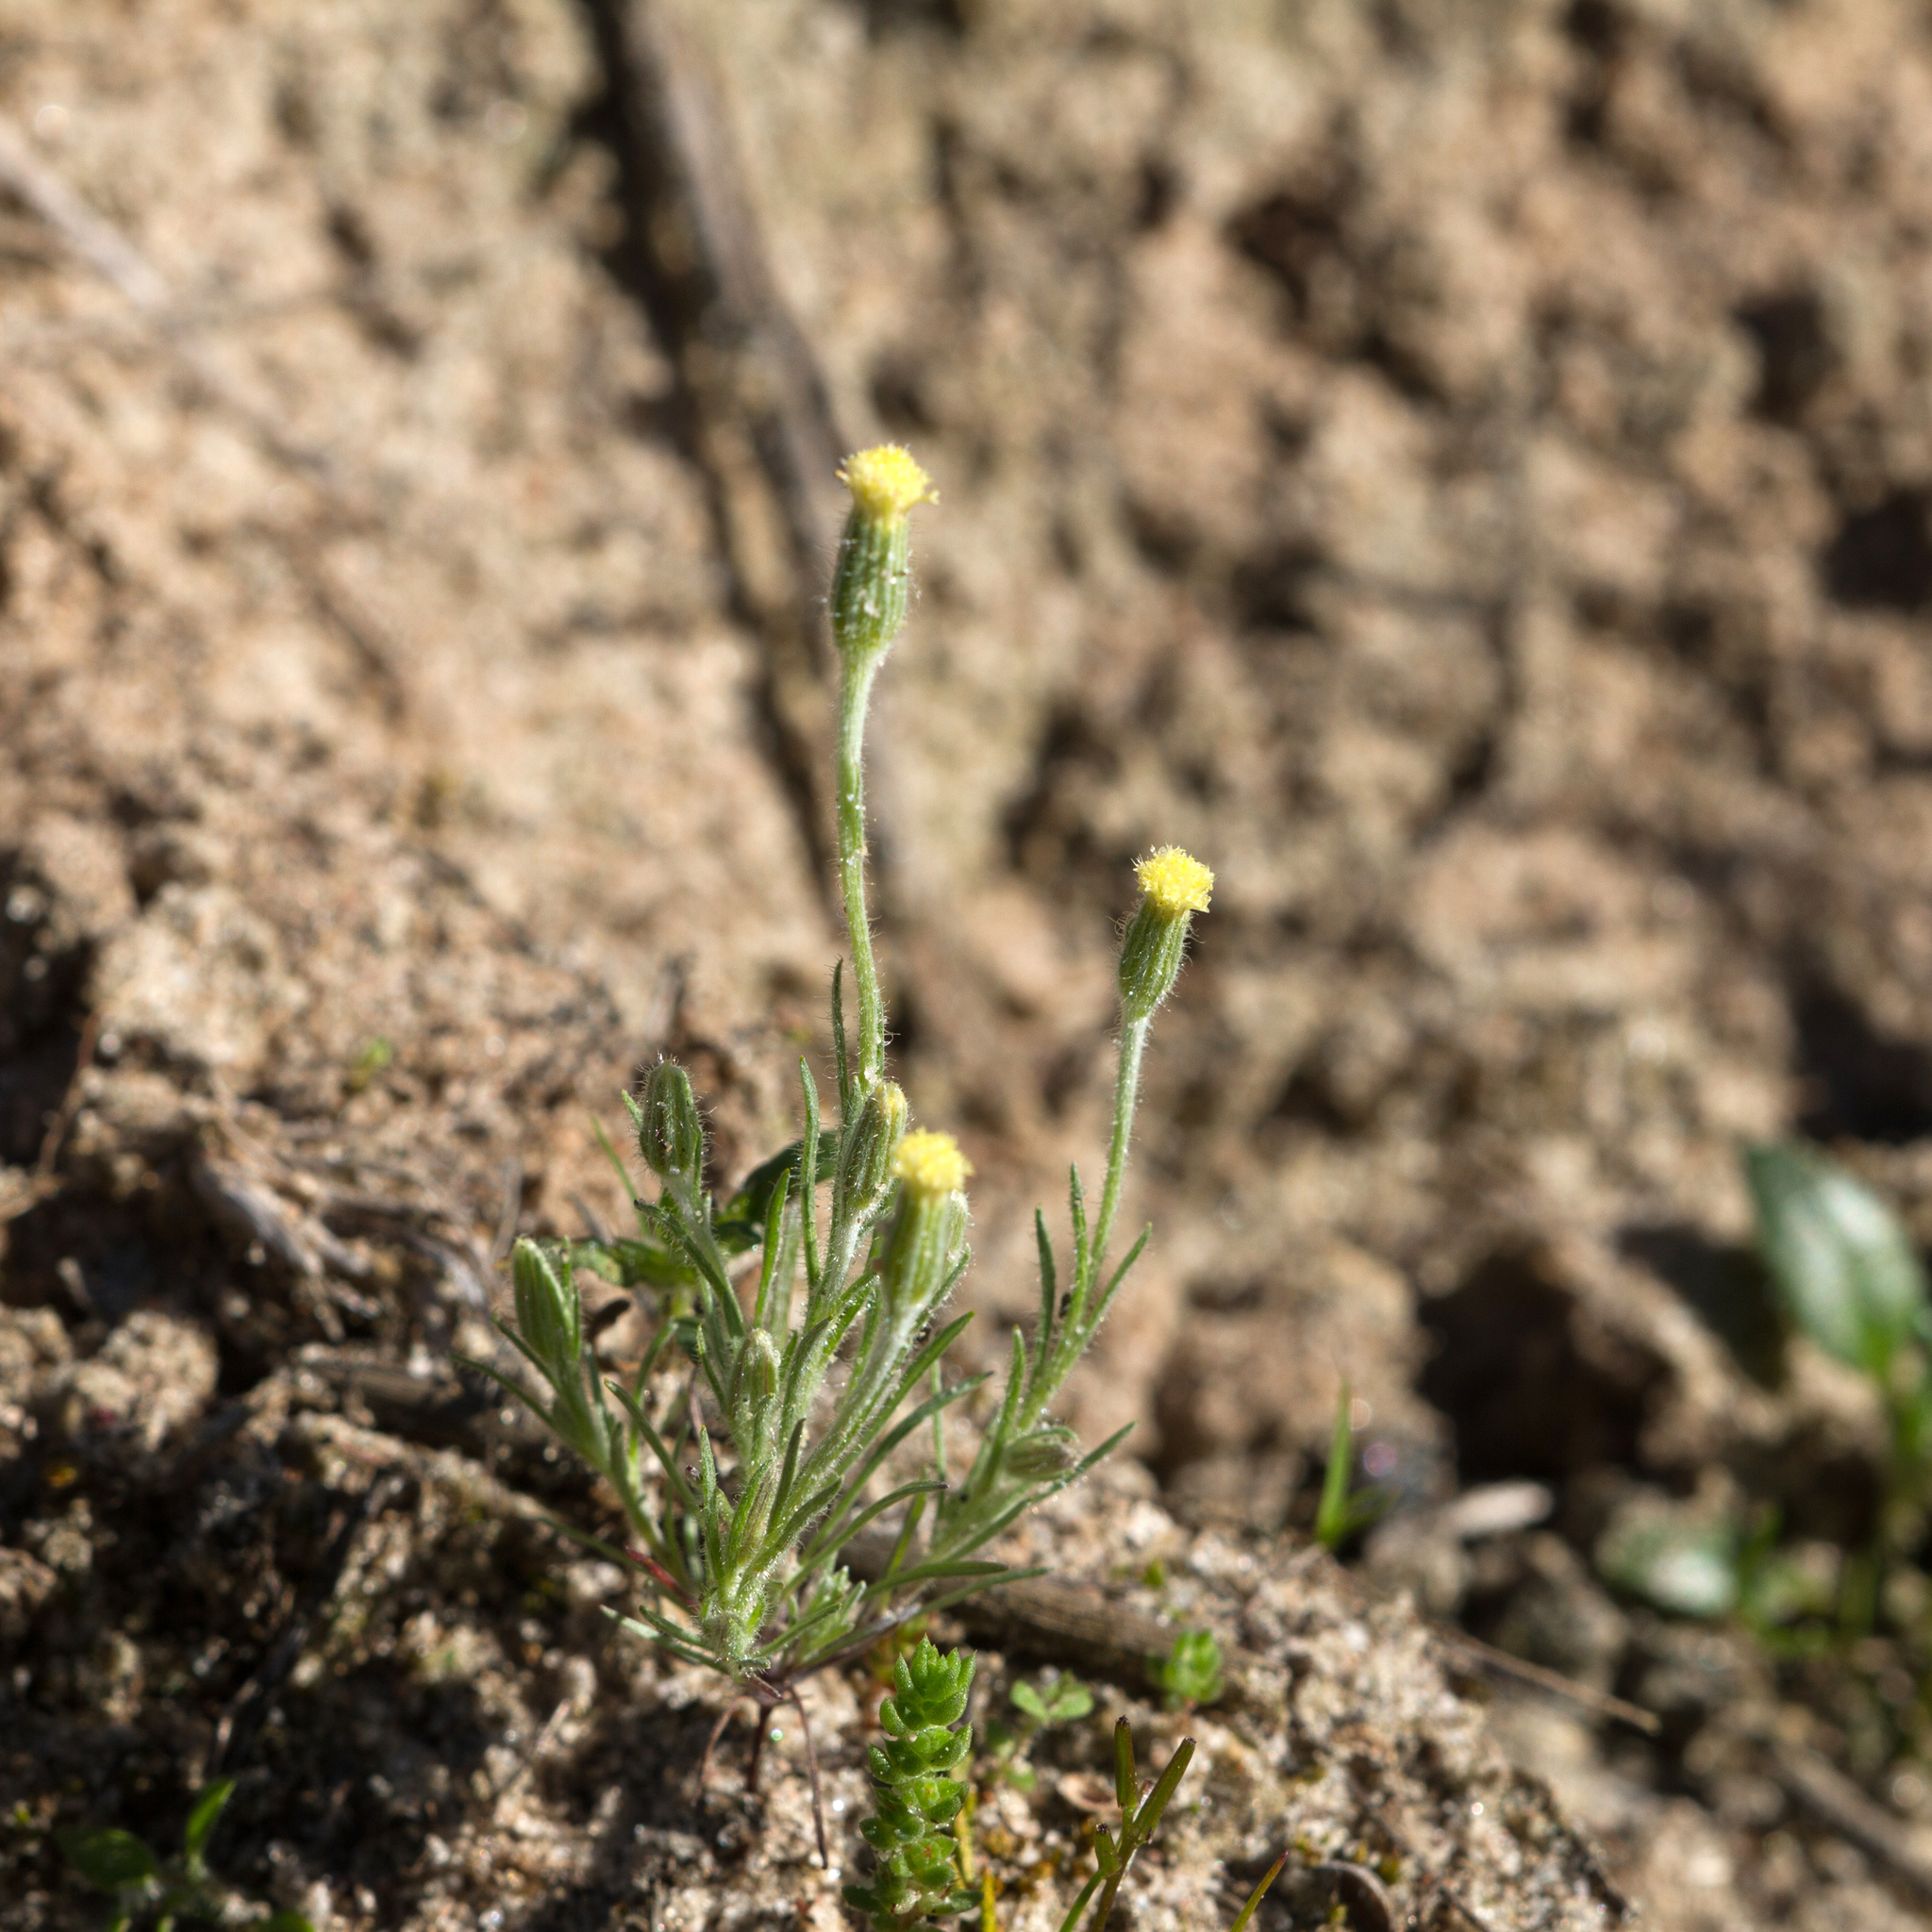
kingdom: Plantae
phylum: Tracheophyta
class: Magnoliopsida
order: Asterales
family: Asteraceae
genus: Millotia
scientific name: Millotia tenuifolia
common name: Soft millotia
